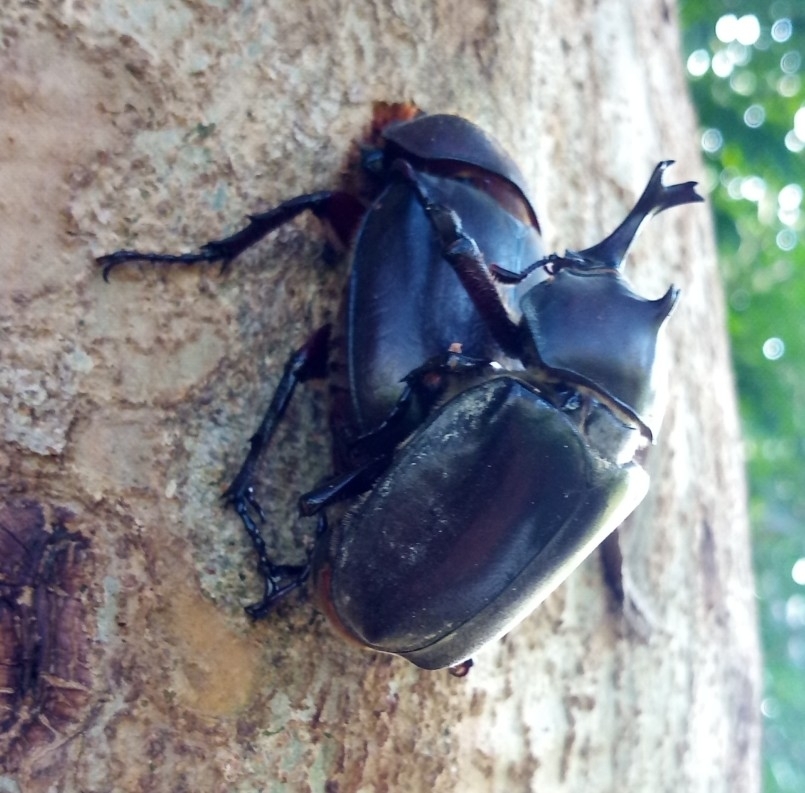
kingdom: Animalia
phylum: Arthropoda
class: Insecta
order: Coleoptera
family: Scarabaeidae
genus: Trypoxylus
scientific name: Trypoxylus dichotomus
